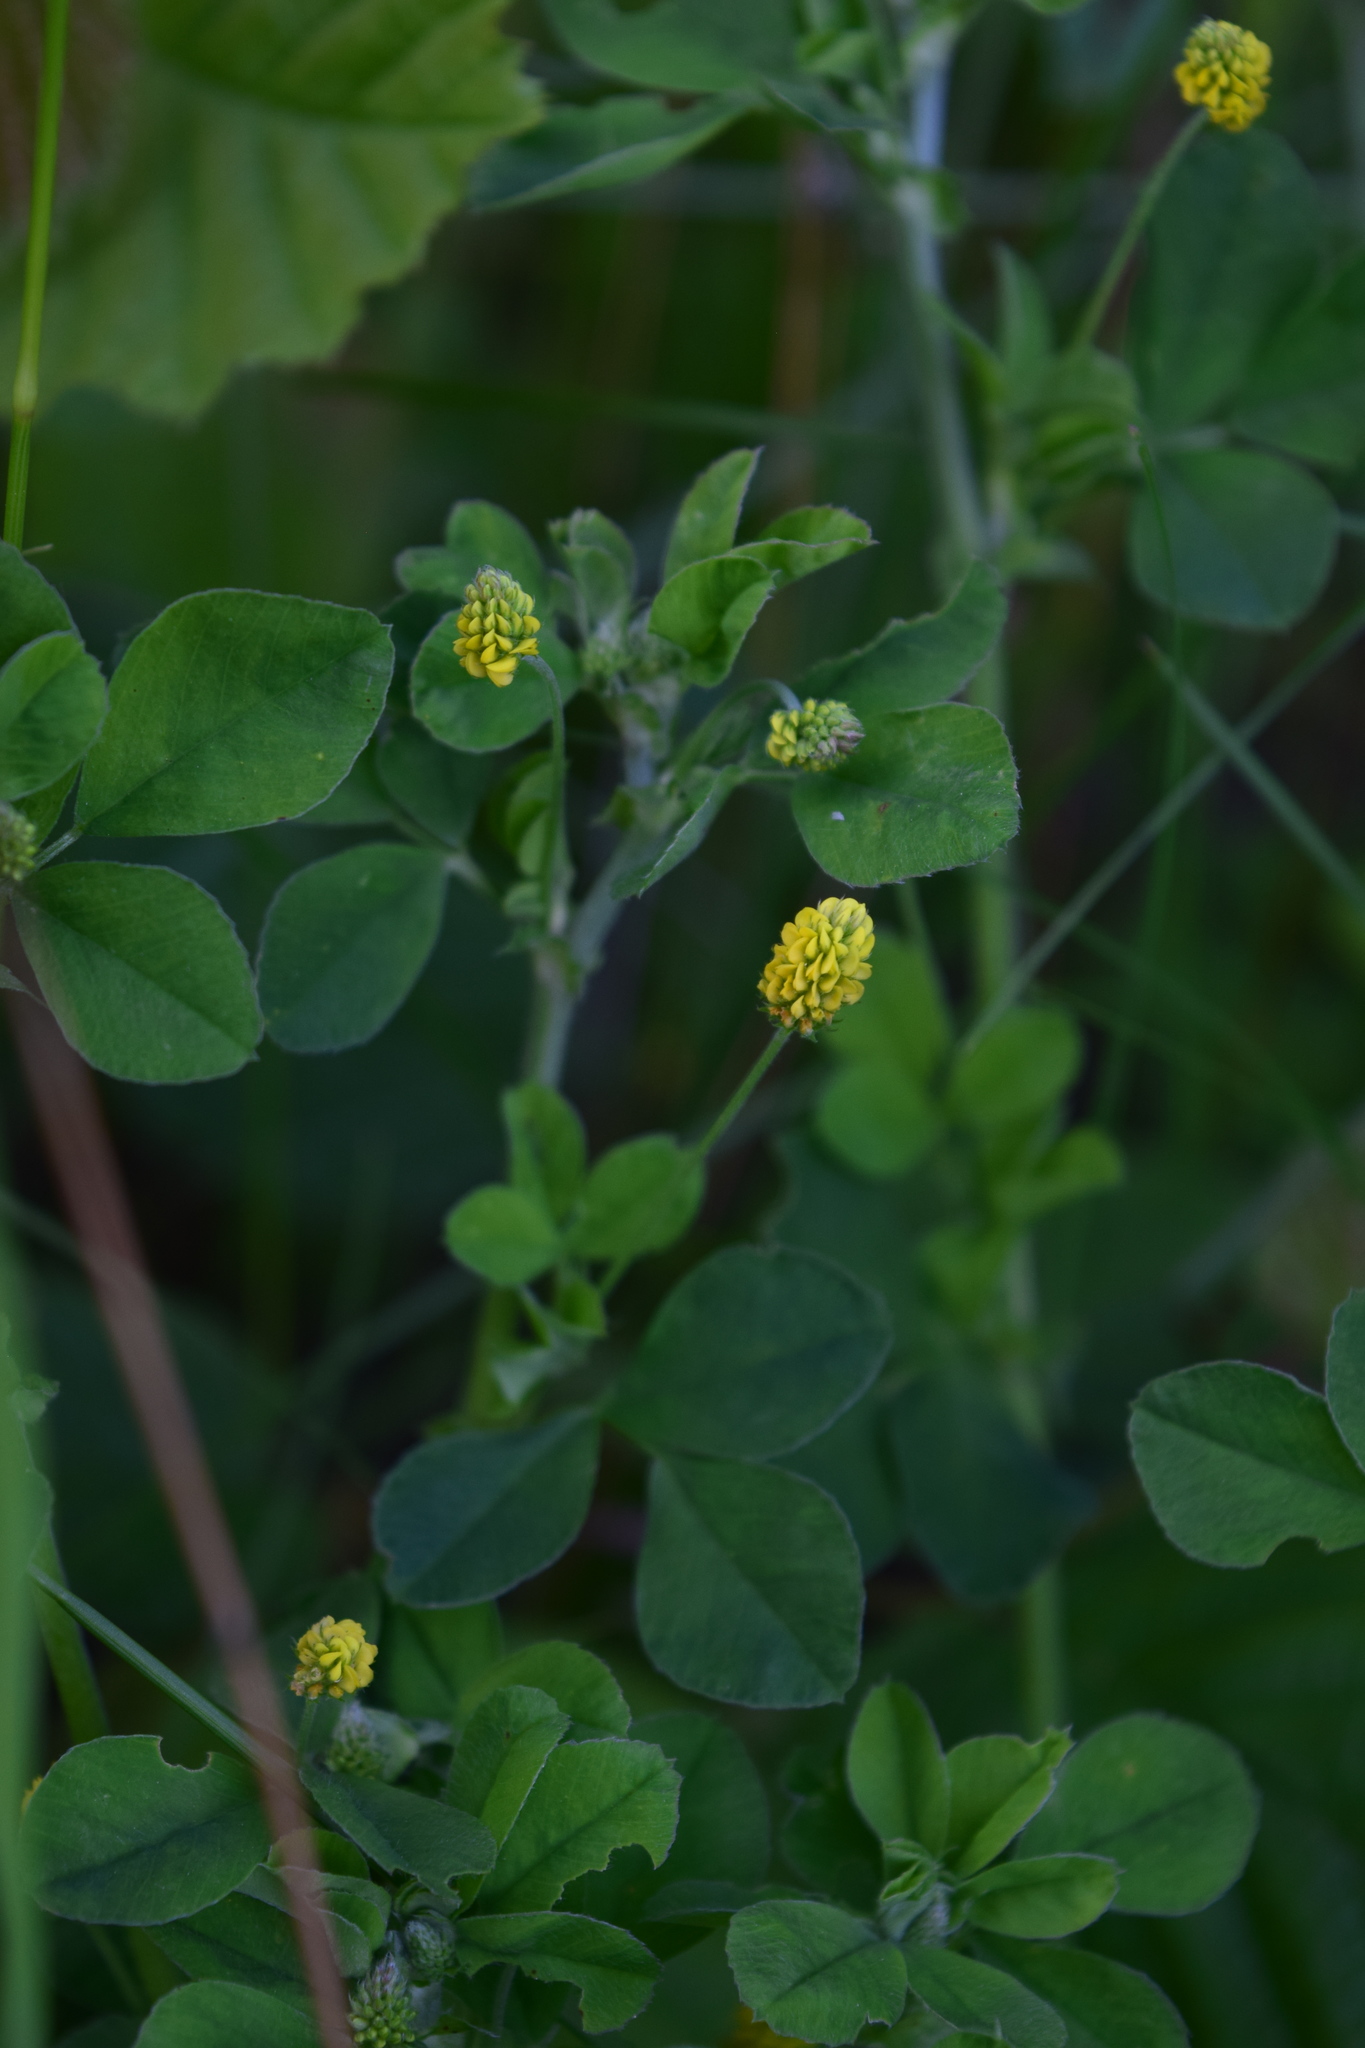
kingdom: Plantae
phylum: Tracheophyta
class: Magnoliopsida
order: Fabales
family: Fabaceae
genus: Medicago
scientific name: Medicago lupulina
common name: Black medick
